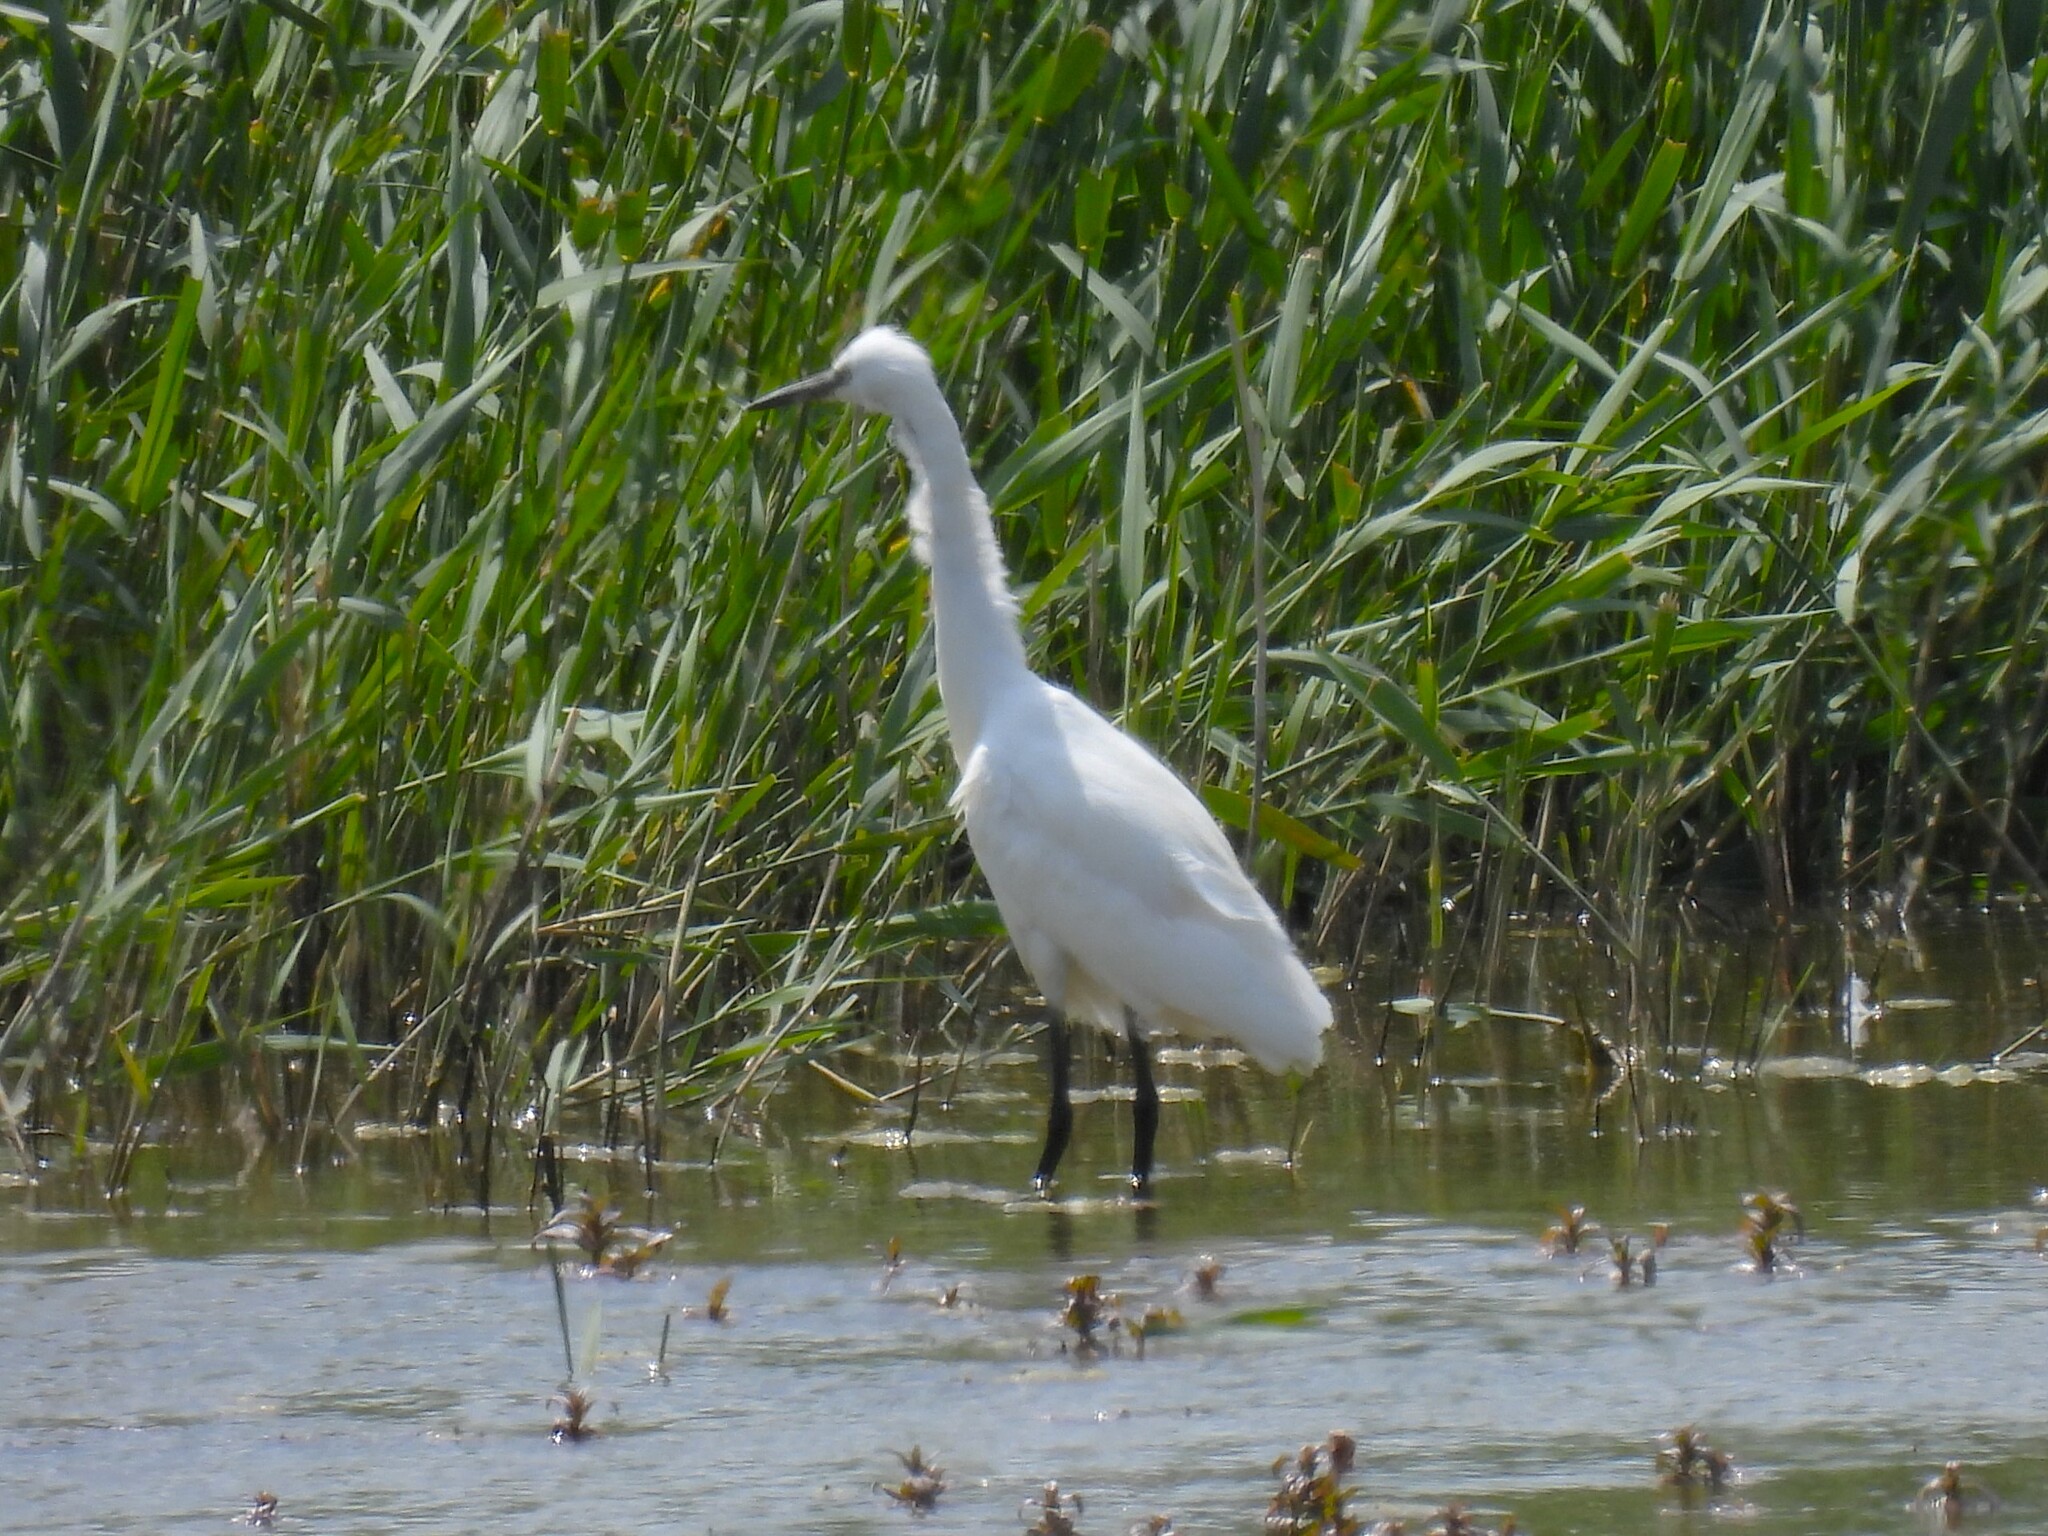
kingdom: Animalia
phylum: Chordata
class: Aves
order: Pelecaniformes
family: Ardeidae
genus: Egretta
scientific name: Egretta garzetta
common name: Little egret
